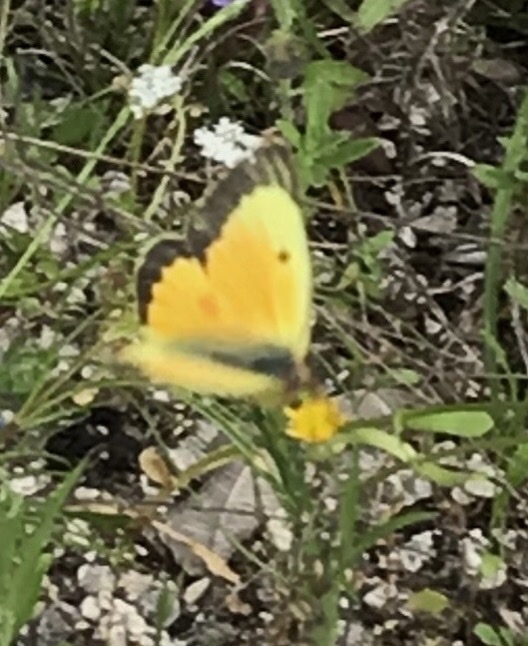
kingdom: Animalia
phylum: Arthropoda
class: Insecta
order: Lepidoptera
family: Pieridae
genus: Colias
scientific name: Colias eurytheme
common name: Alfalfa butterfly
